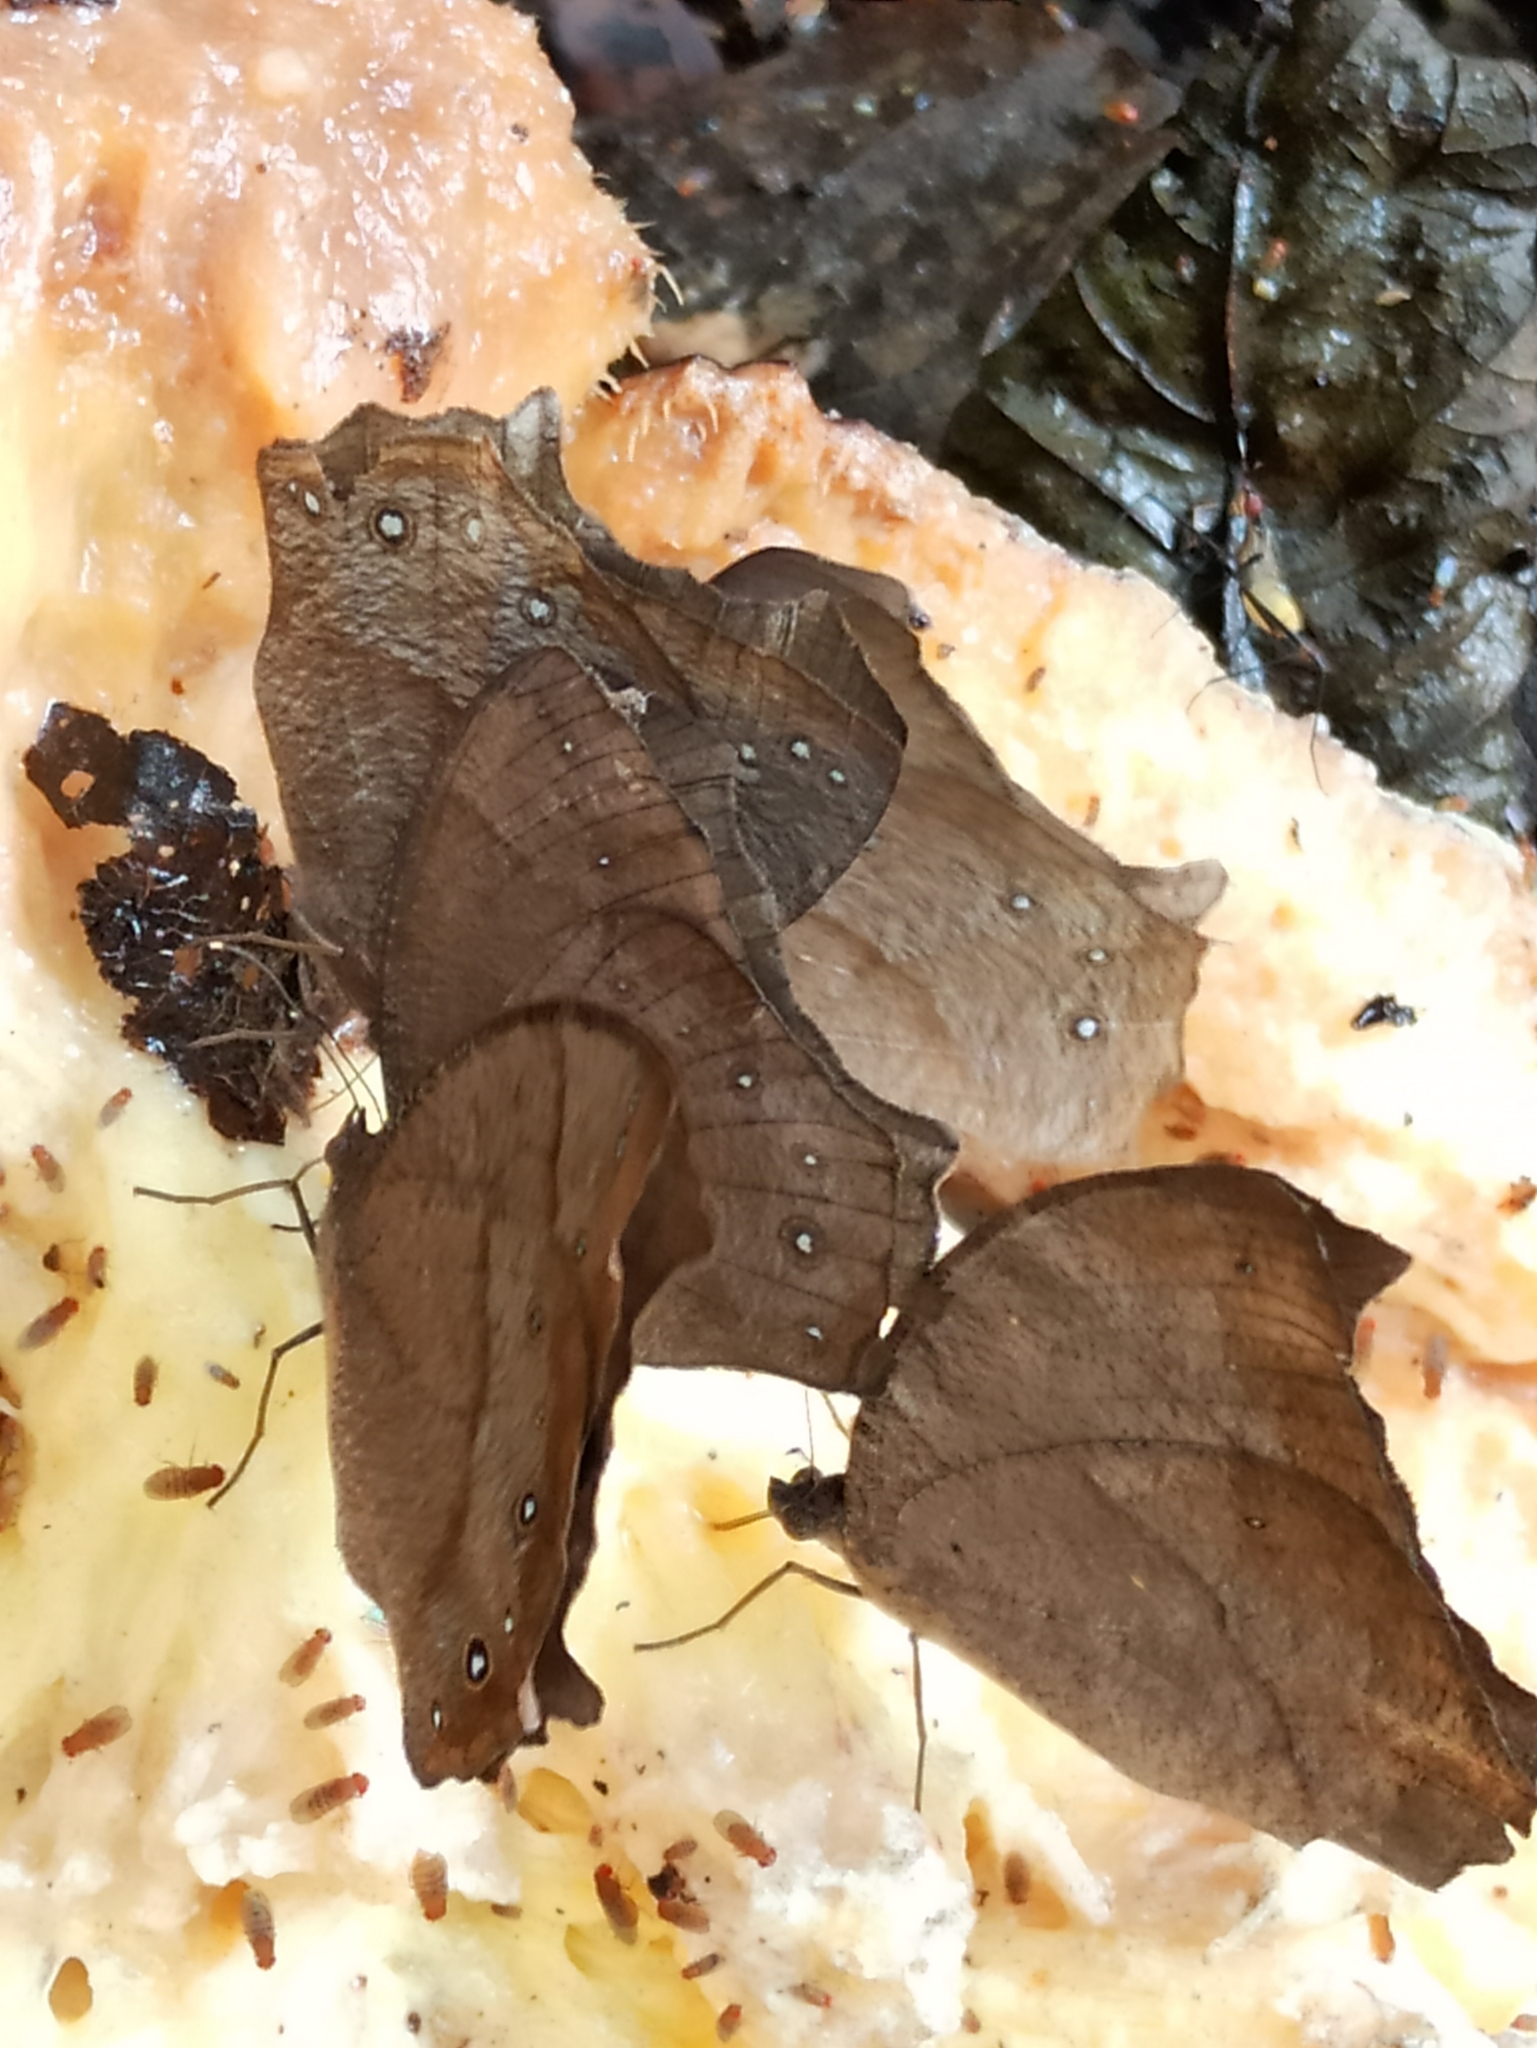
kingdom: Animalia
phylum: Arthropoda
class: Insecta
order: Lepidoptera
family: Nymphalidae
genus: Melanitis
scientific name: Melanitis leda
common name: Twilight brown
